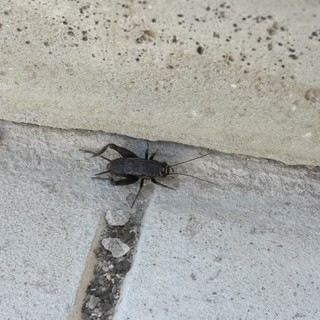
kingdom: Animalia
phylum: Arthropoda
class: Insecta
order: Orthoptera
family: Gryllidae
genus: Modicogryllus
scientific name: Modicogryllus frontalis
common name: Eastern cricket
